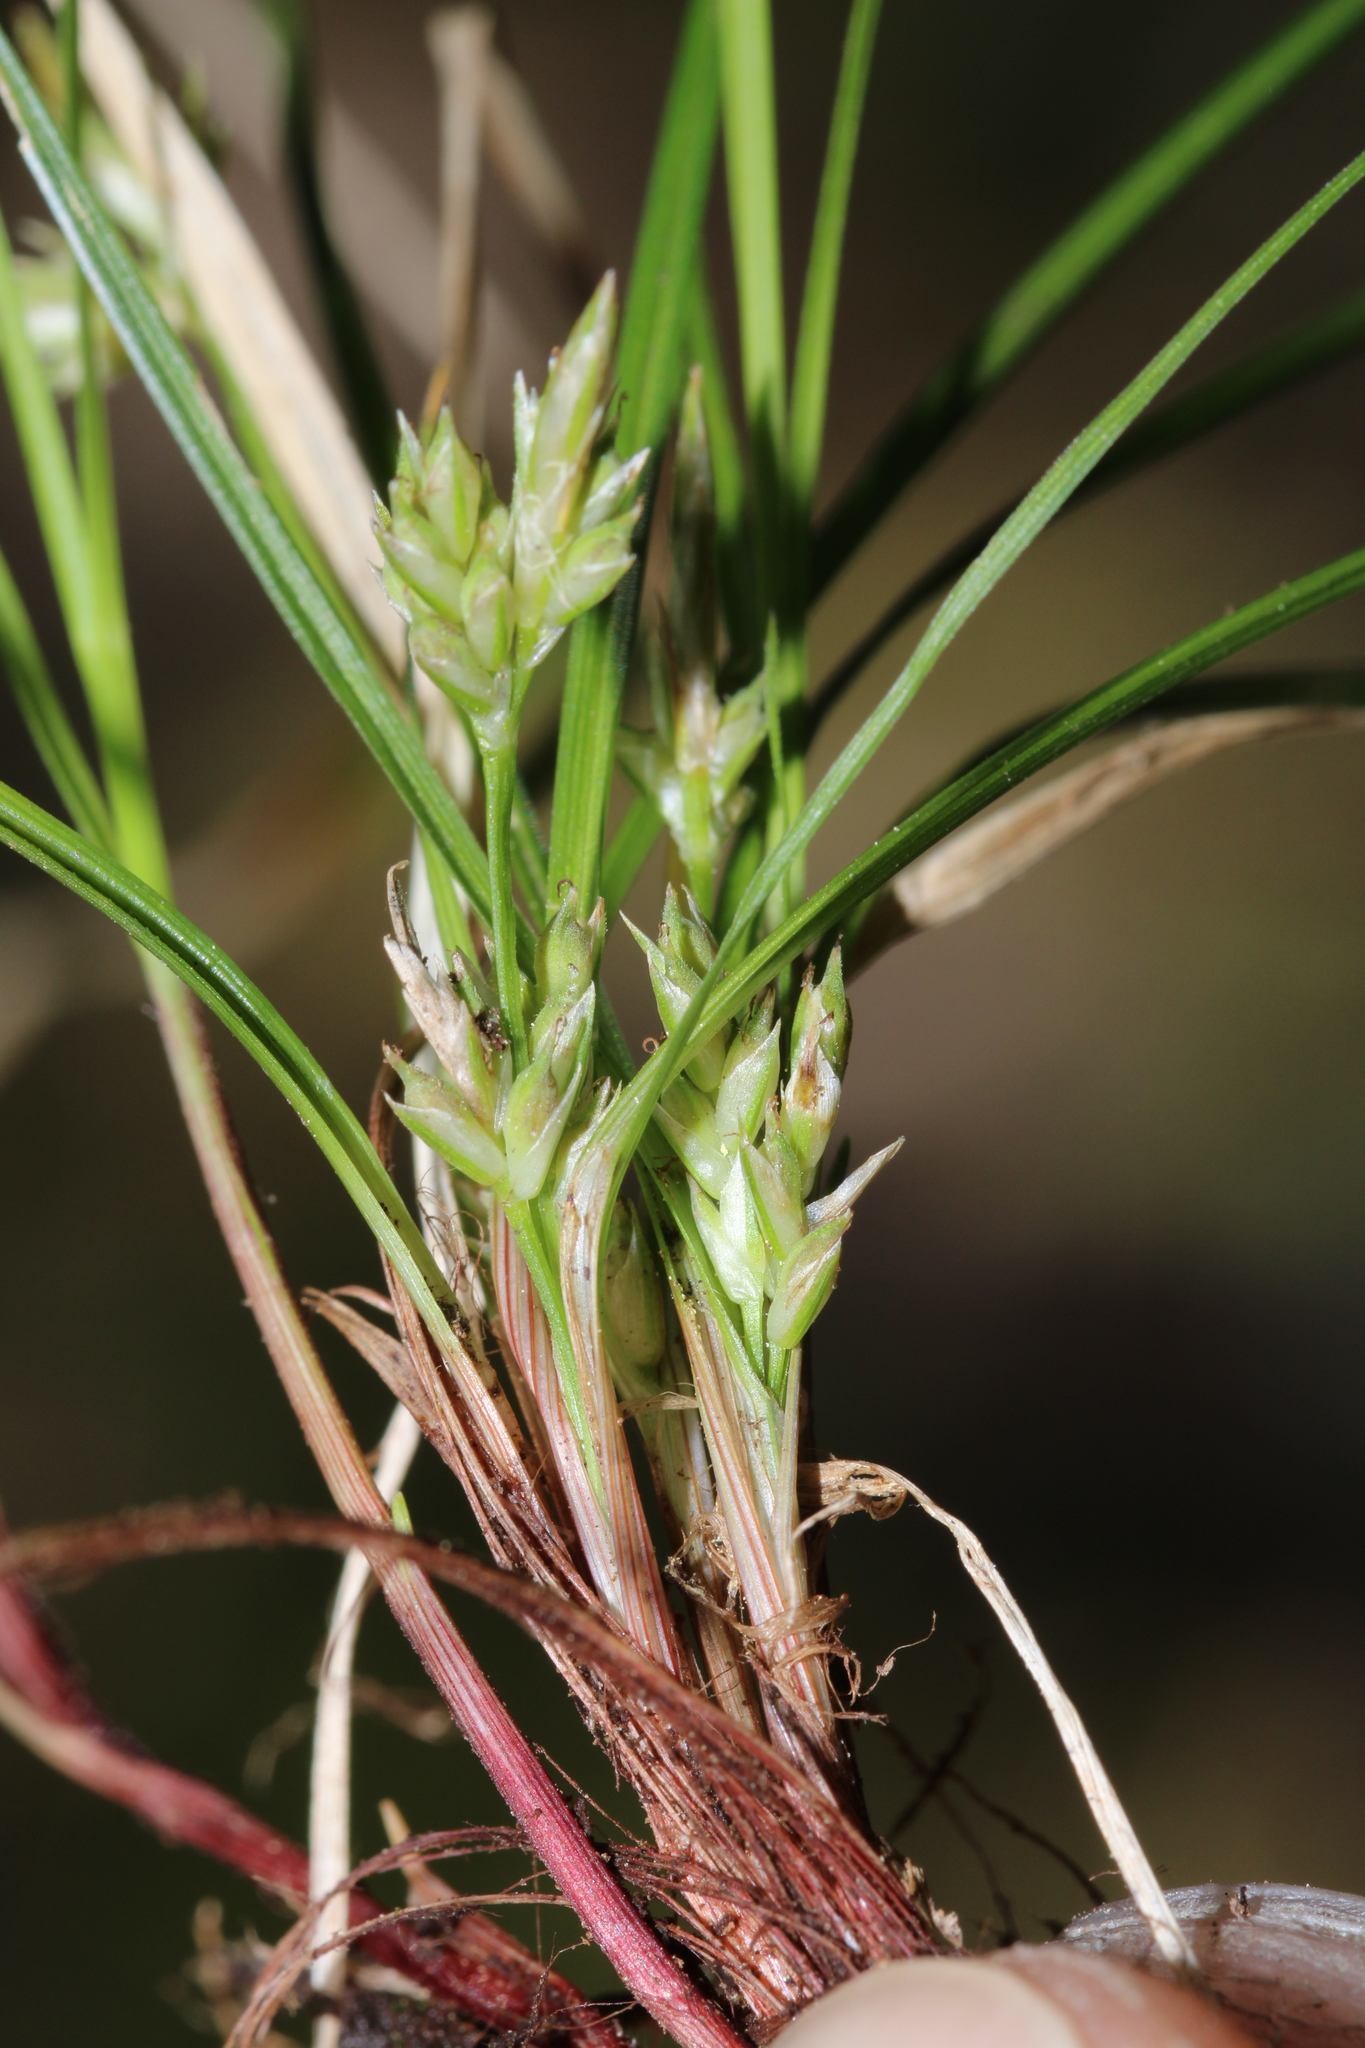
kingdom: Plantae
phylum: Tracheophyta
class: Liliopsida
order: Poales
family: Cyperaceae
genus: Carex
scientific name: Carex austrodeflexa
